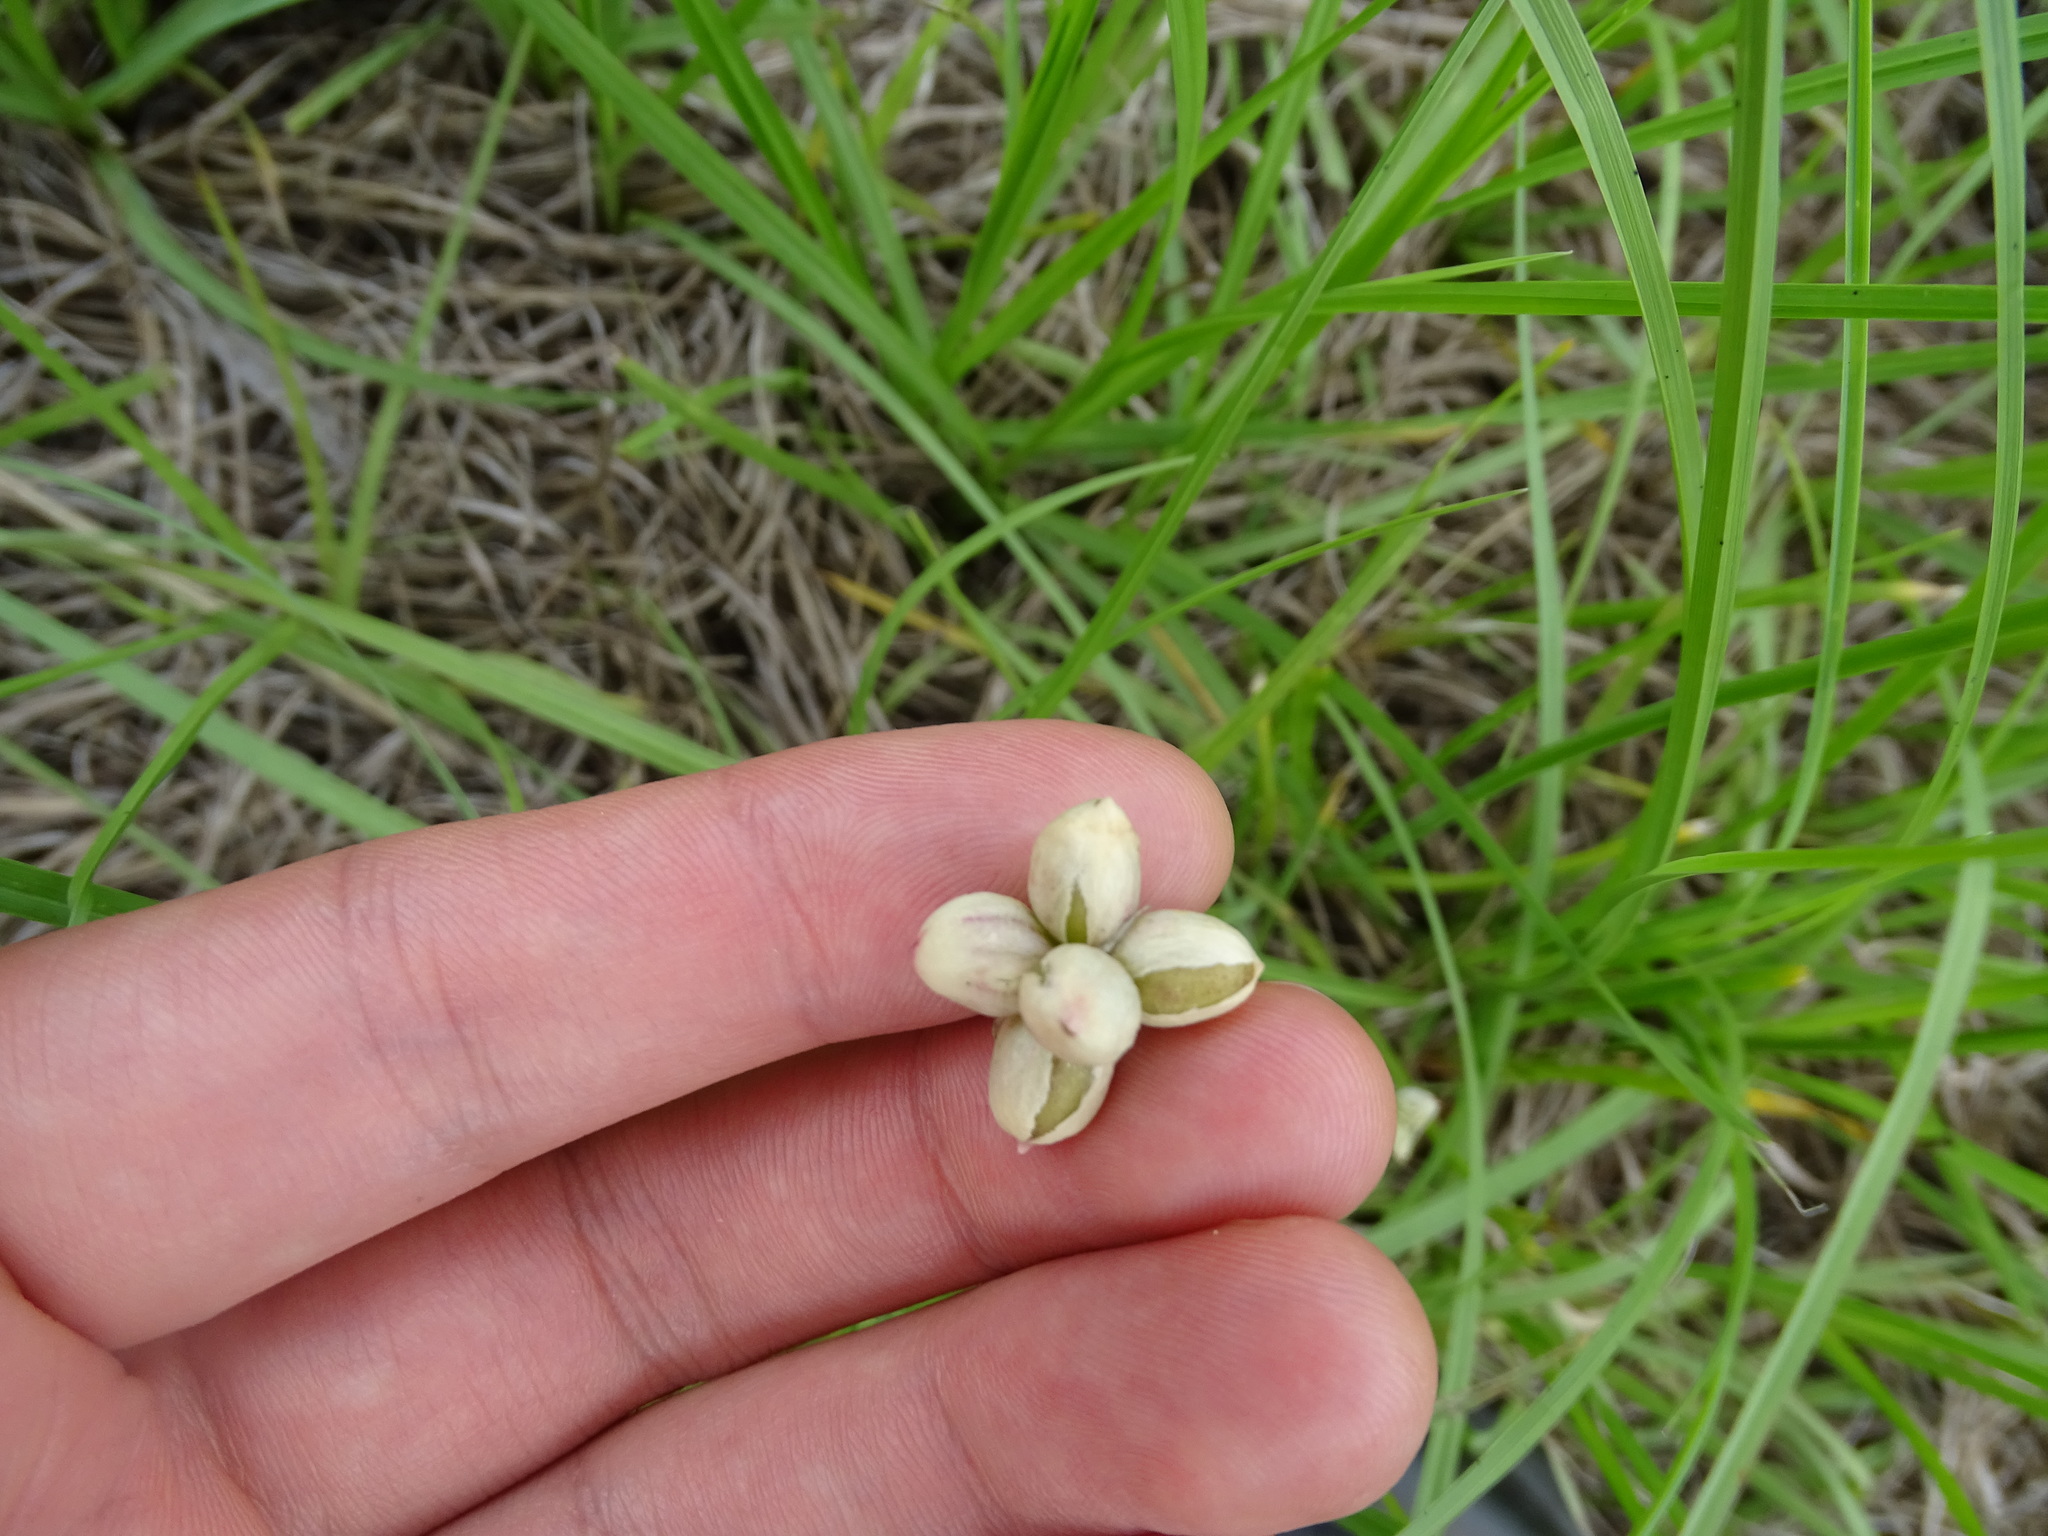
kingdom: Plantae
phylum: Tracheophyta
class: Liliopsida
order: Asparagales
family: Amaryllidaceae
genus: Allium
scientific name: Allium canadense
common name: Meadow garlic
